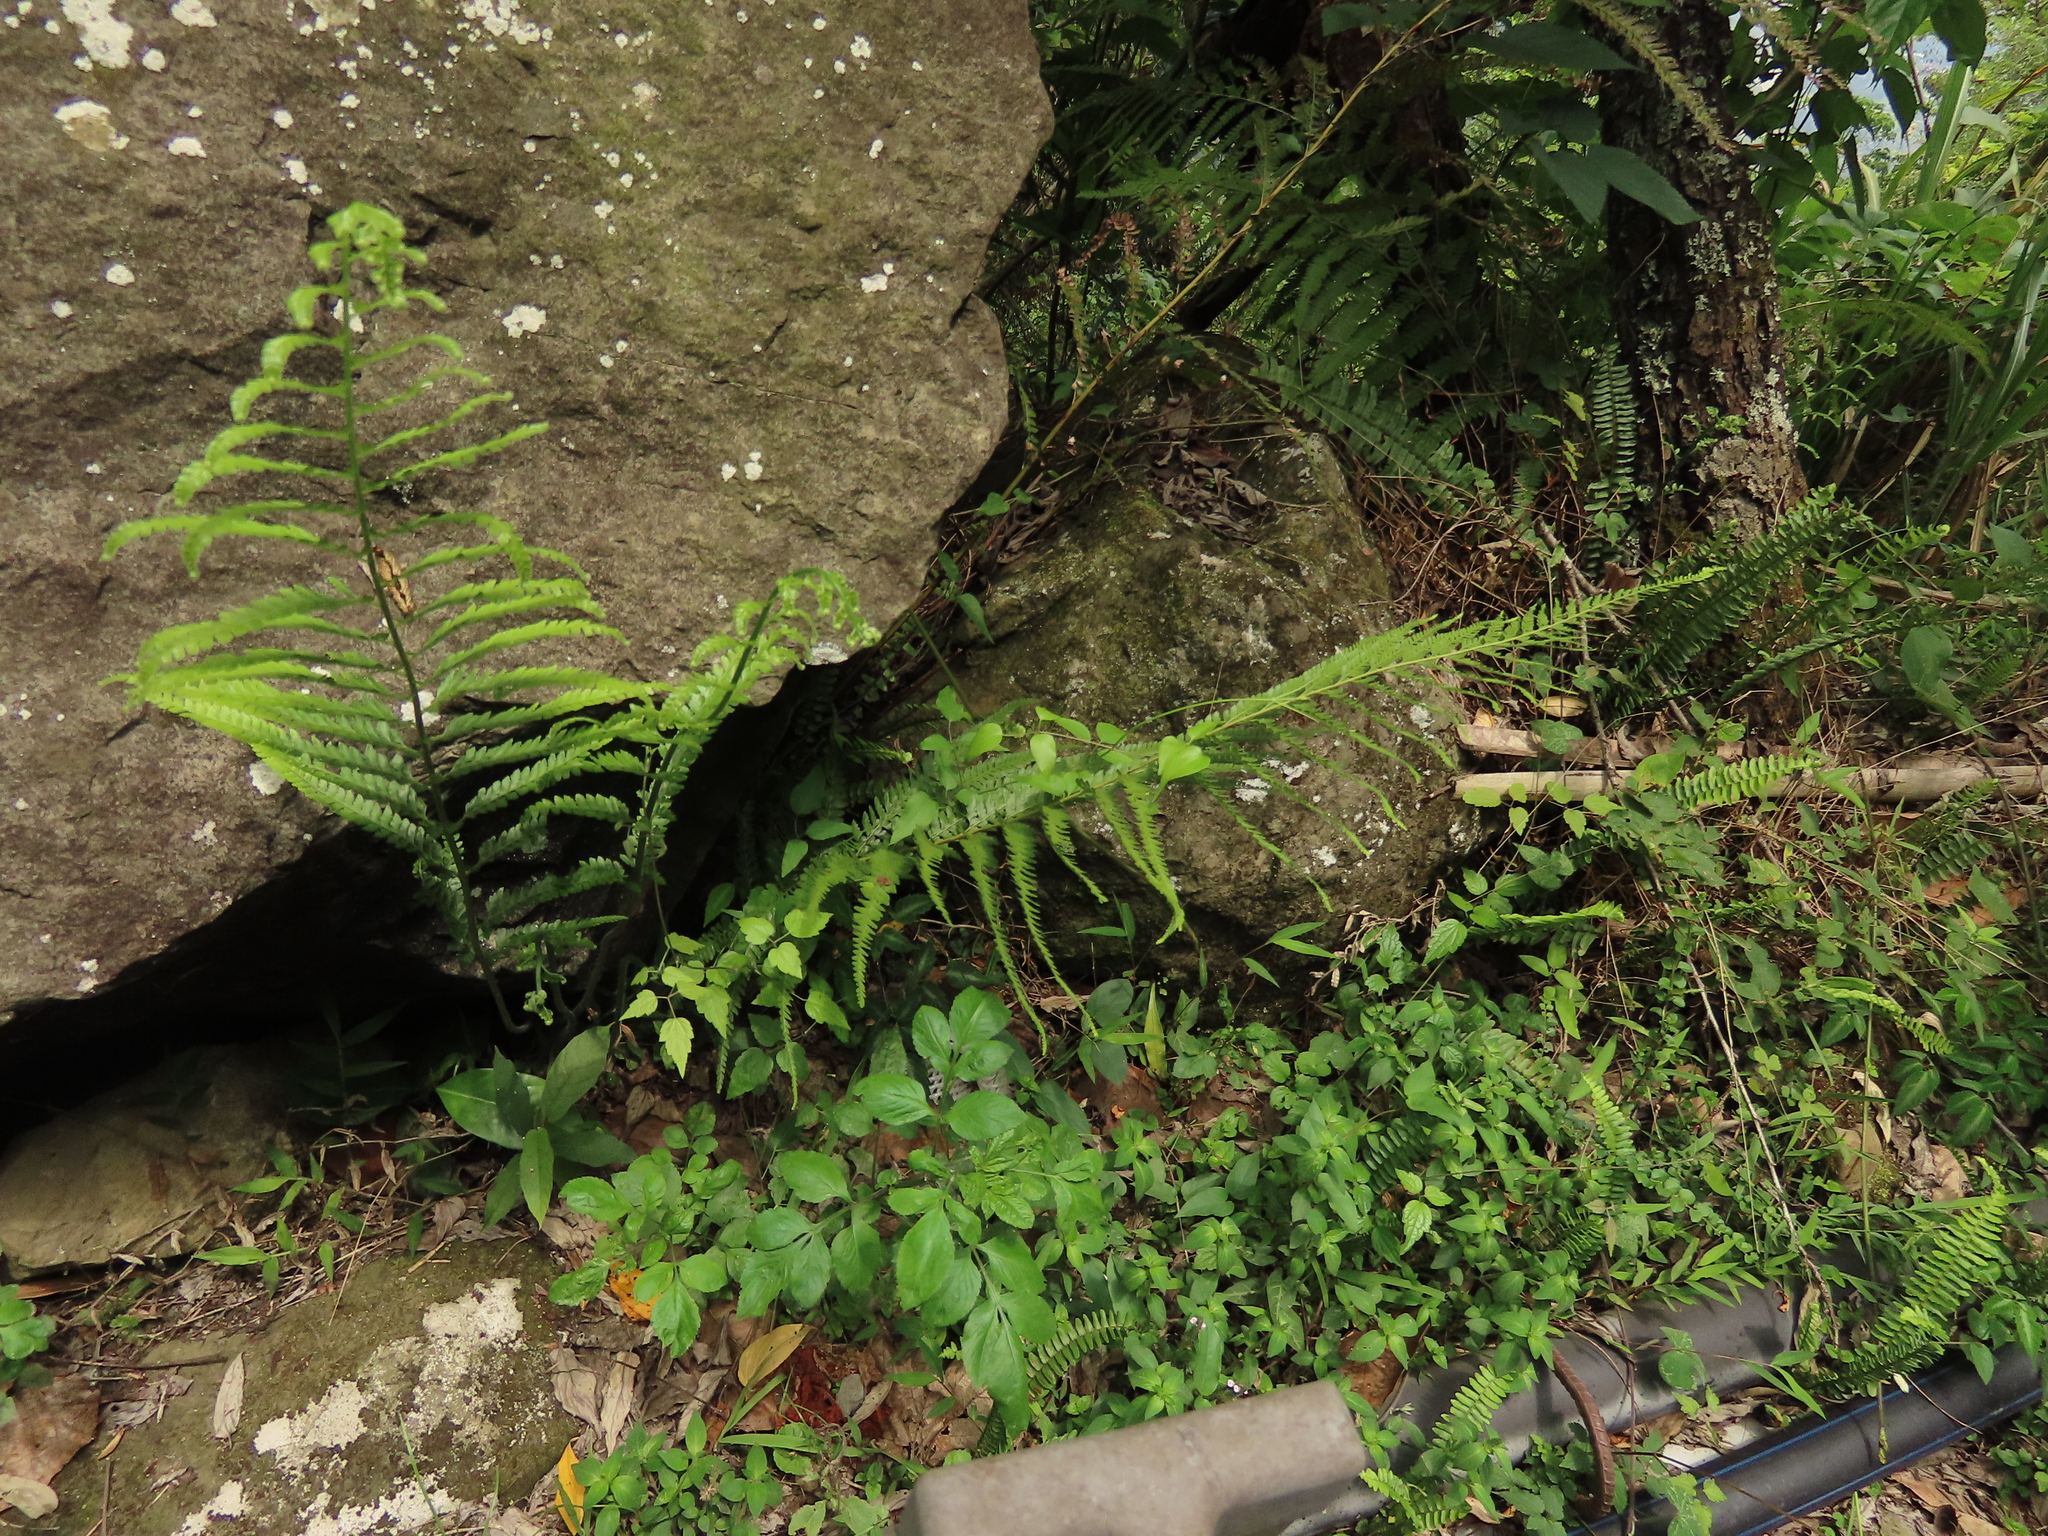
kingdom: Plantae
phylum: Tracheophyta
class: Polypodiopsida
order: Polypodiales
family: Dennstaedtiaceae
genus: Microlepia
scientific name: Microlepia strigosa
